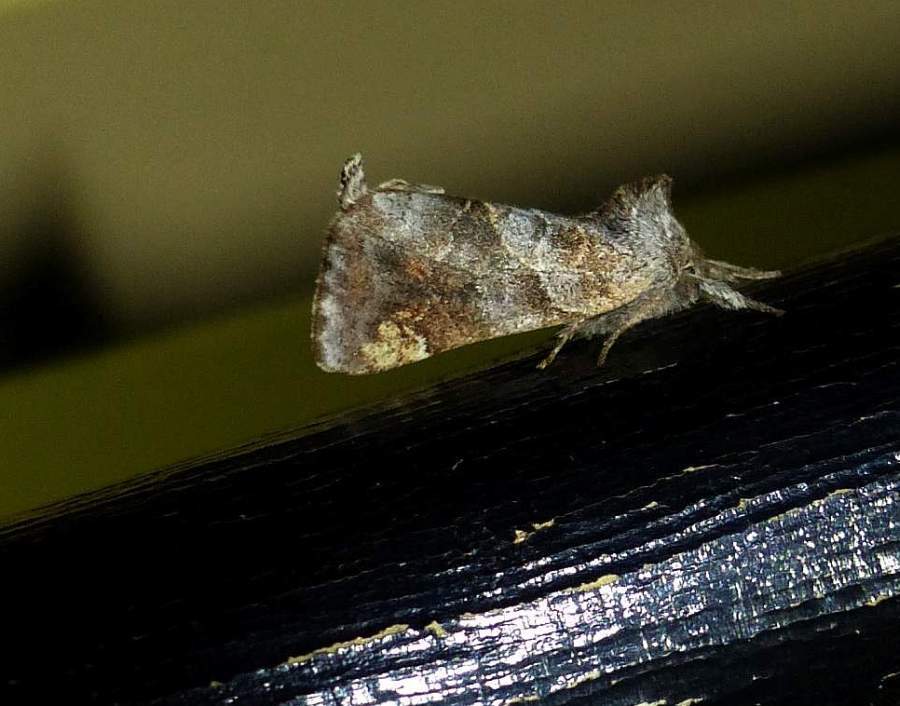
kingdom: Animalia
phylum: Arthropoda
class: Insecta
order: Lepidoptera
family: Notodontidae
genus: Clostera
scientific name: Clostera strigosa
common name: Striped chocolate-tip moth
